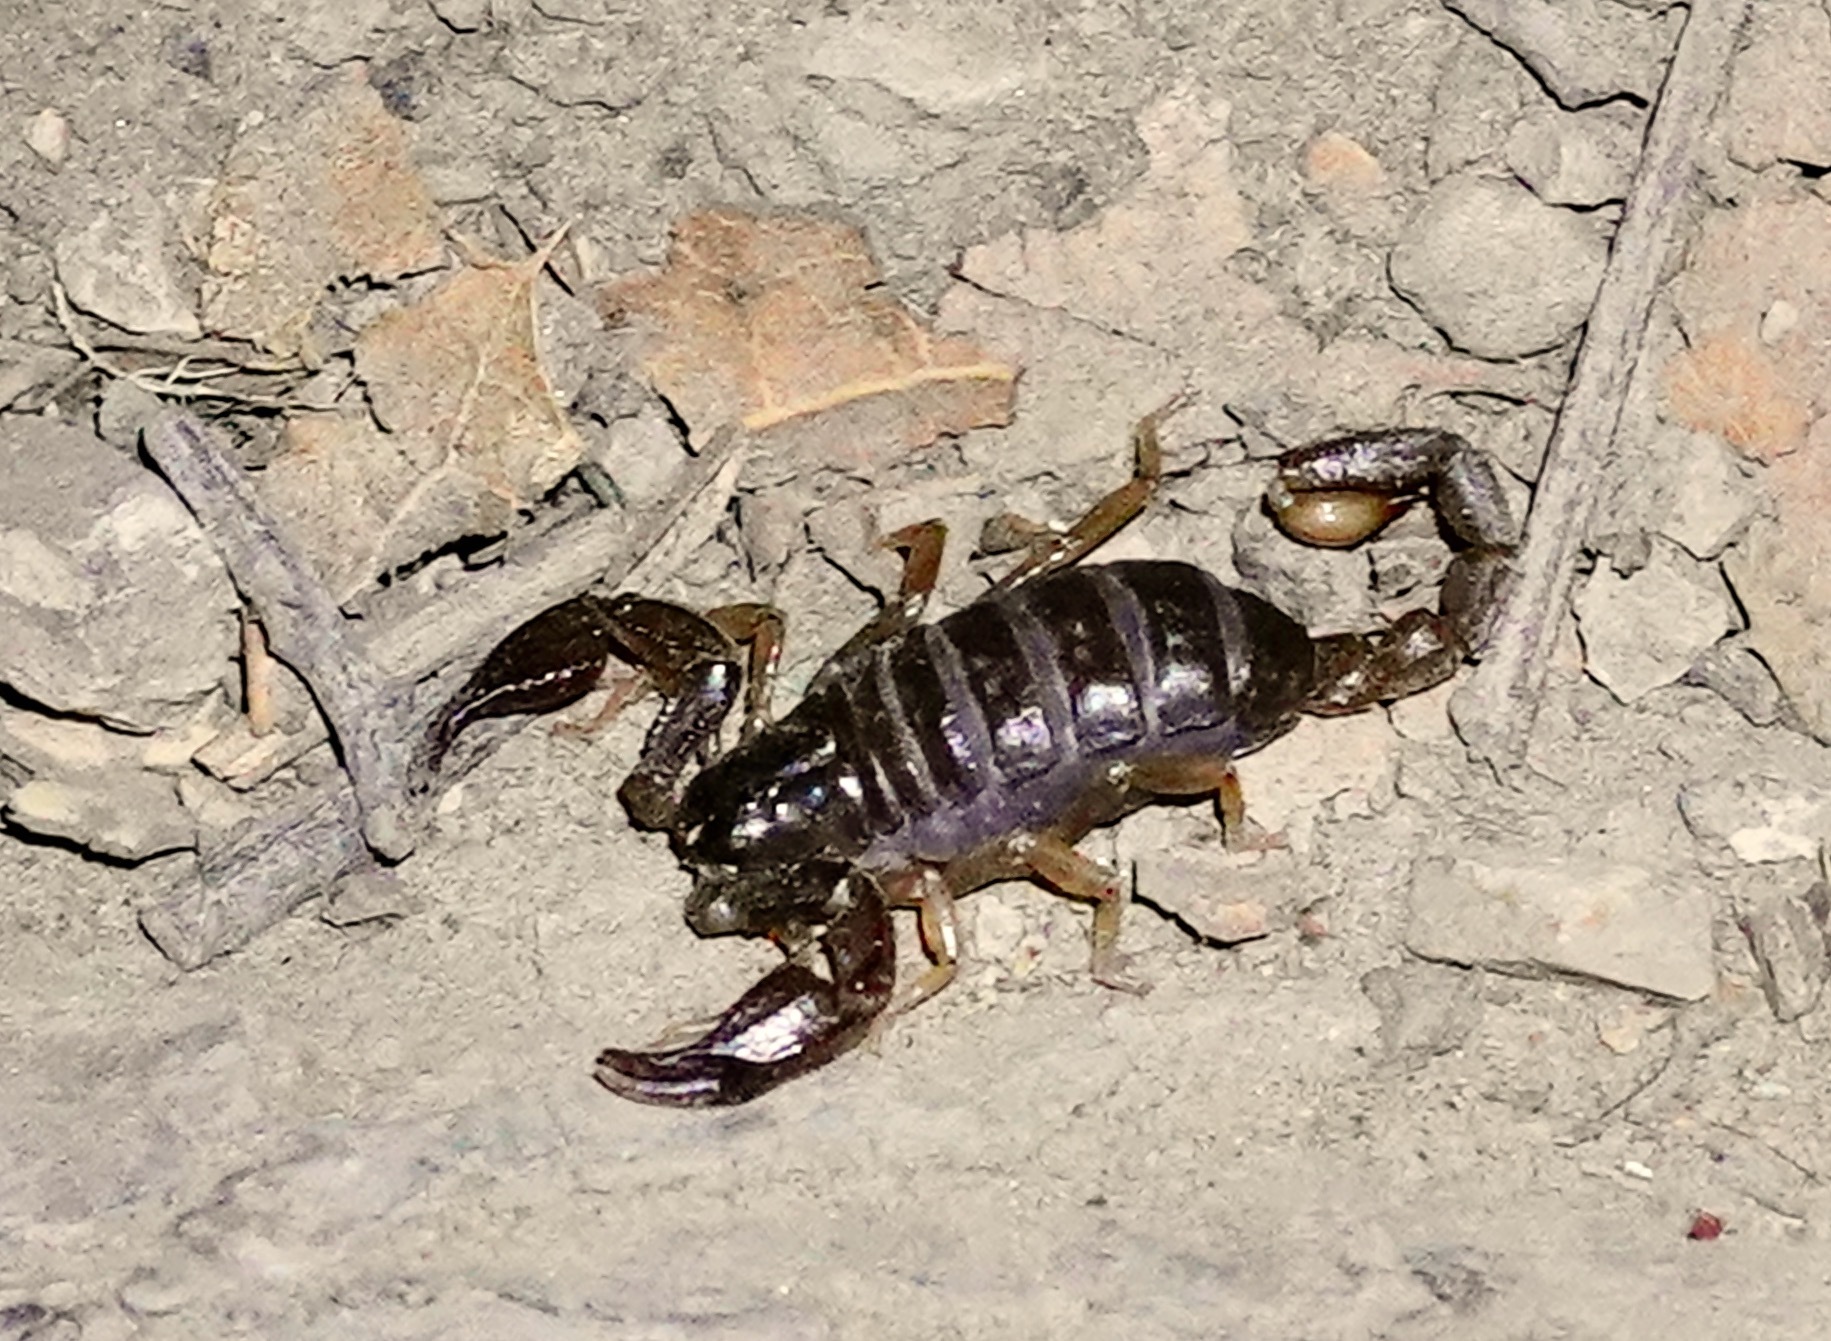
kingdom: Animalia
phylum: Arthropoda
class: Arachnida
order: Scorpiones
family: Chactidae
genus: Uroctonus
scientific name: Uroctonus mordax
